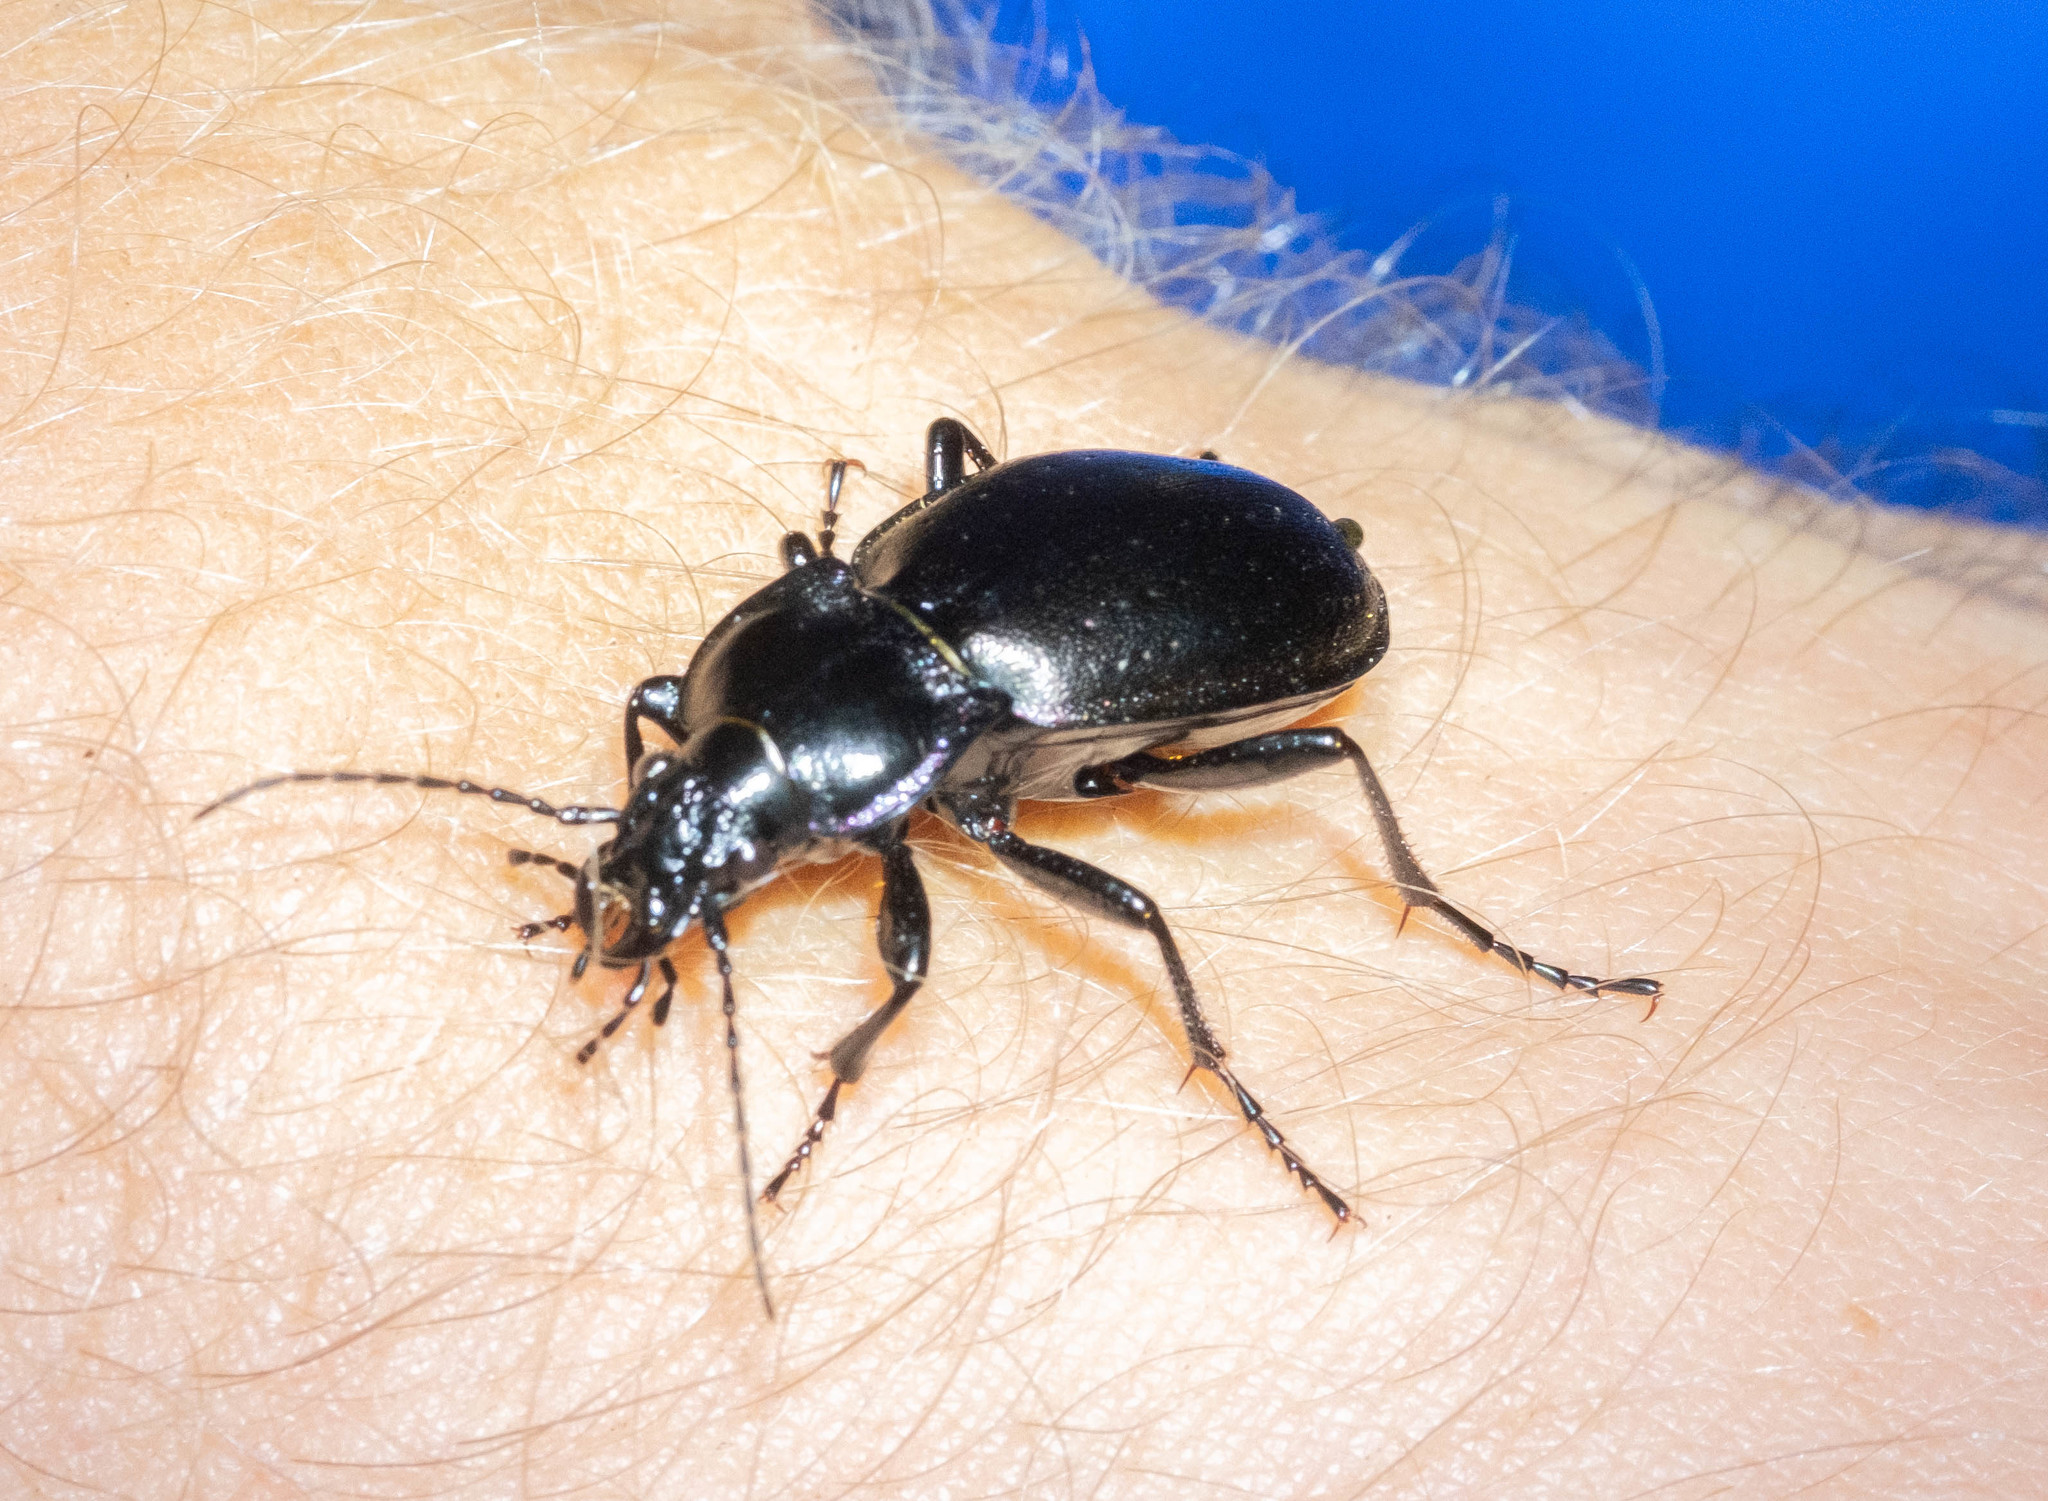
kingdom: Animalia
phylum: Arthropoda
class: Insecta
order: Coleoptera
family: Carabidae
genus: Carabus
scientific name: Carabus nemoralis
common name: European ground beetle
